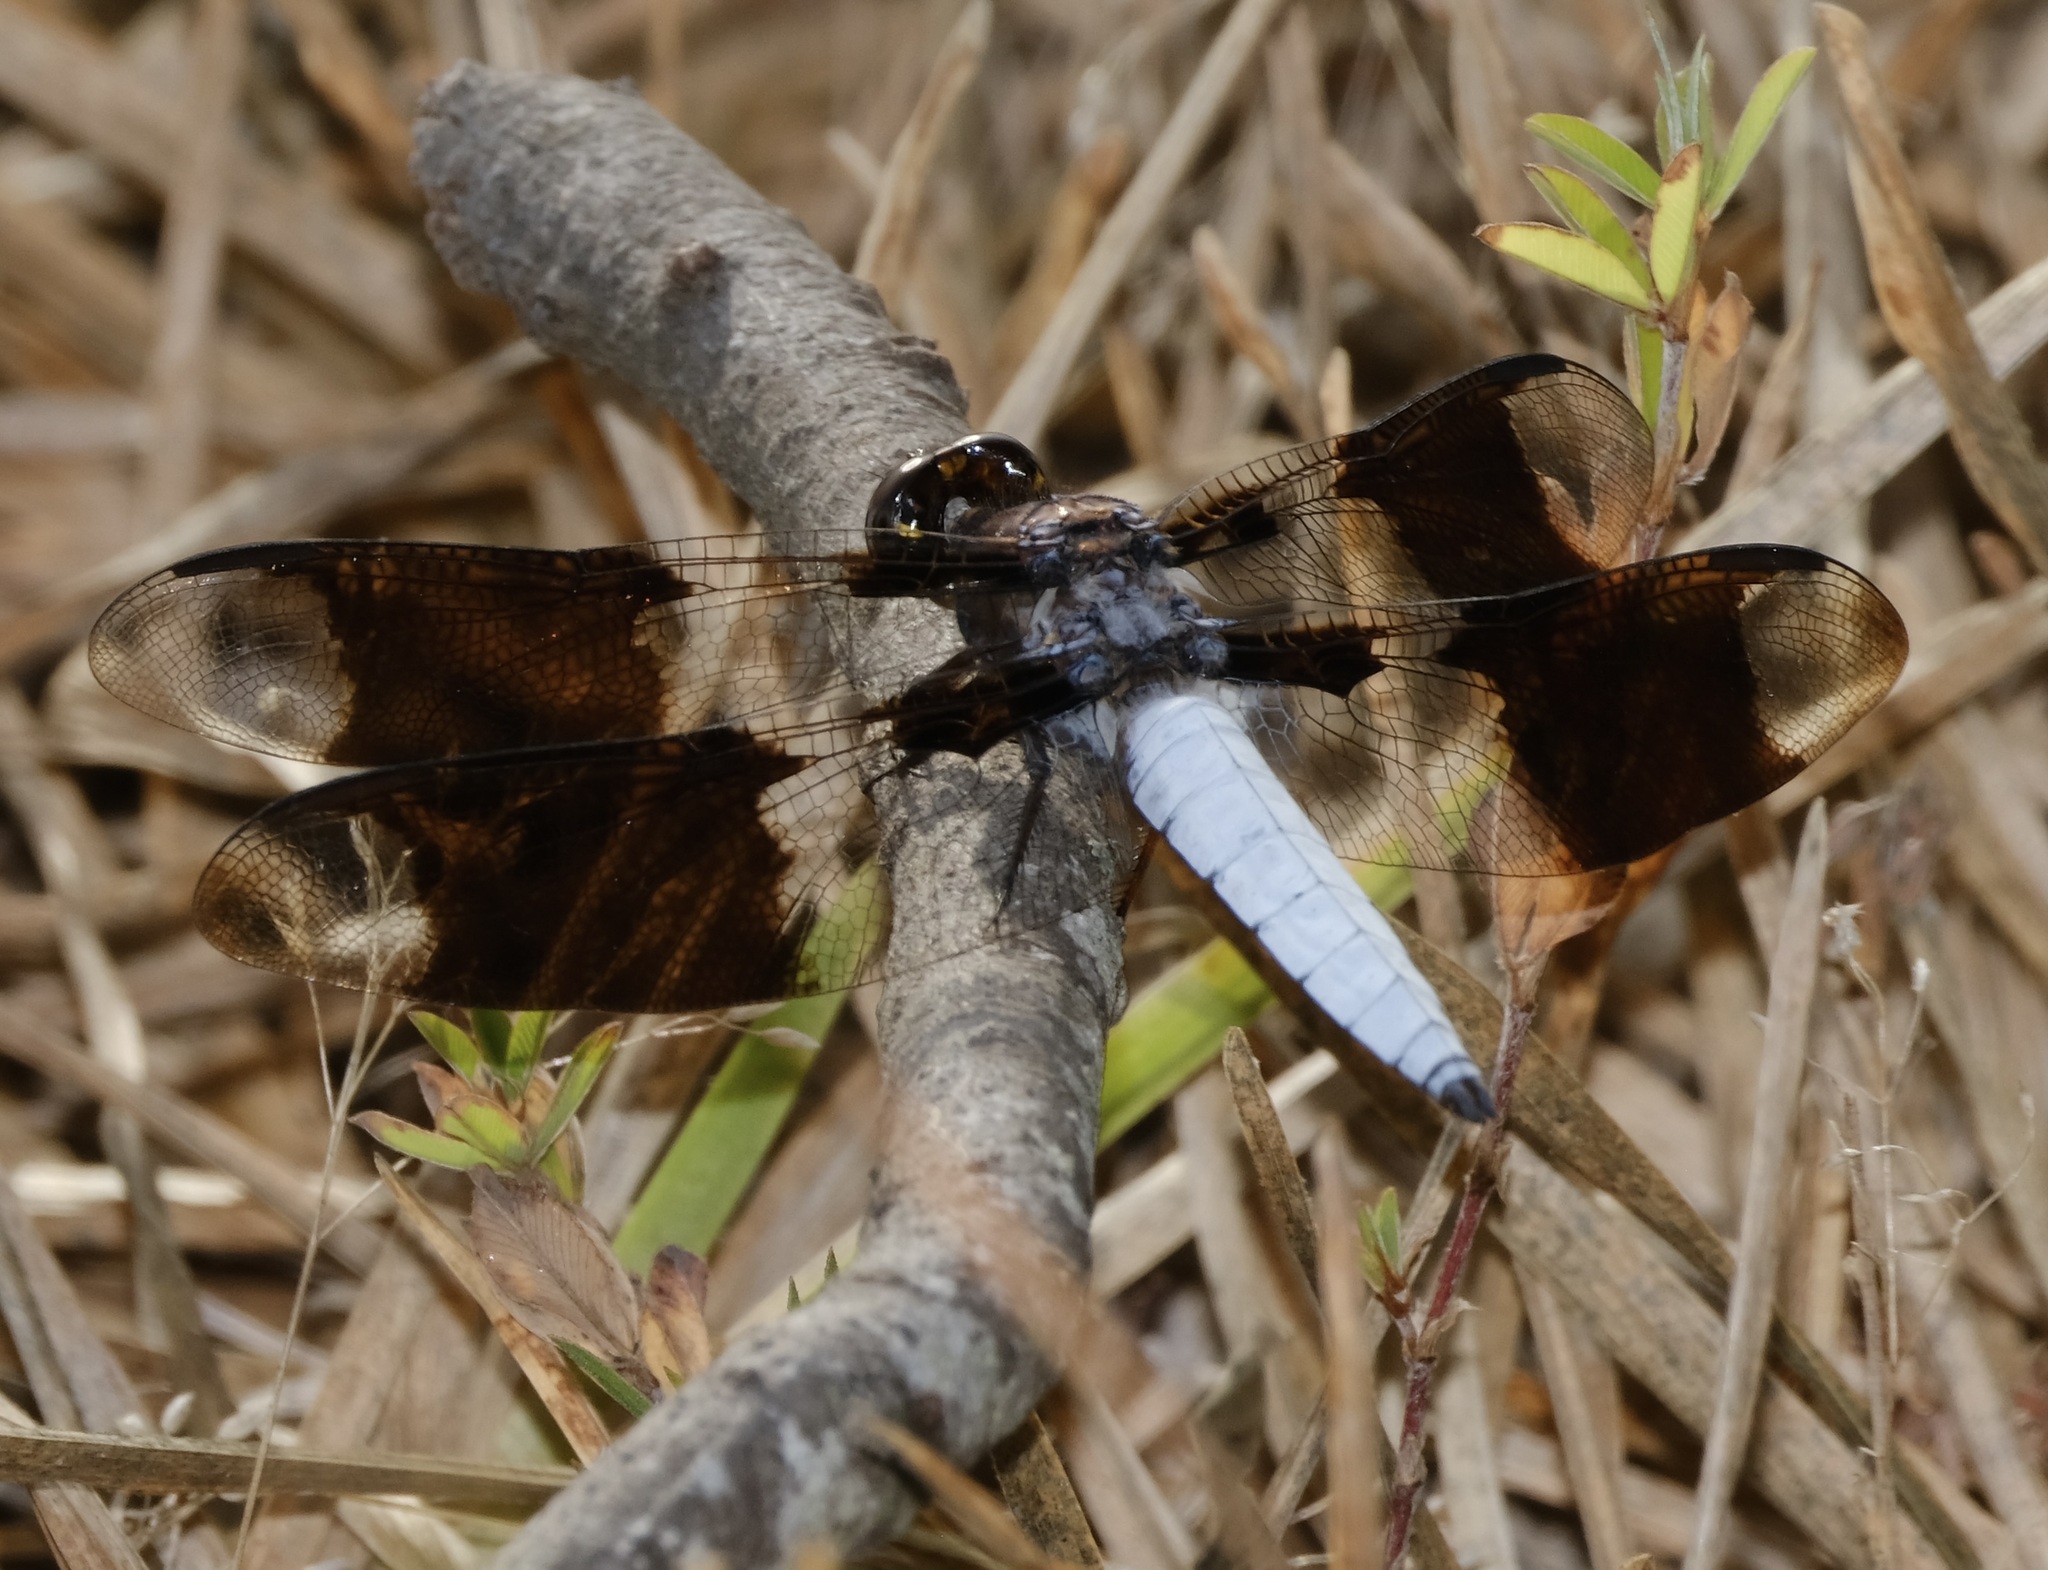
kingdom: Animalia
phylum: Arthropoda
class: Insecta
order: Odonata
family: Libellulidae
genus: Plathemis
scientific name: Plathemis lydia
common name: Common whitetail
